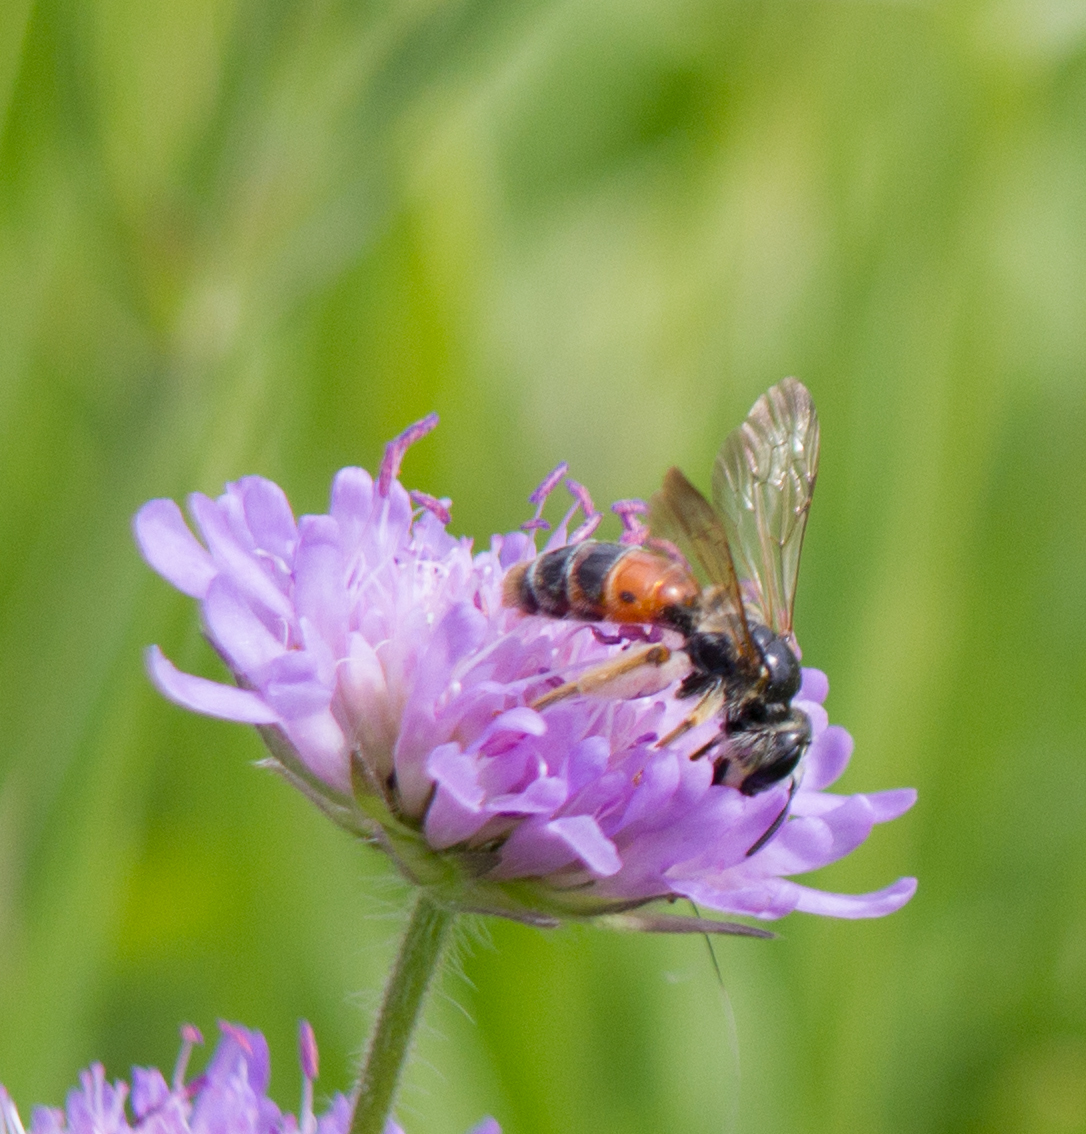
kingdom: Animalia
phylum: Arthropoda
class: Insecta
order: Hymenoptera
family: Andrenidae
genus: Andrena
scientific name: Andrena hattorfiana
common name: Large scabious mining bee
